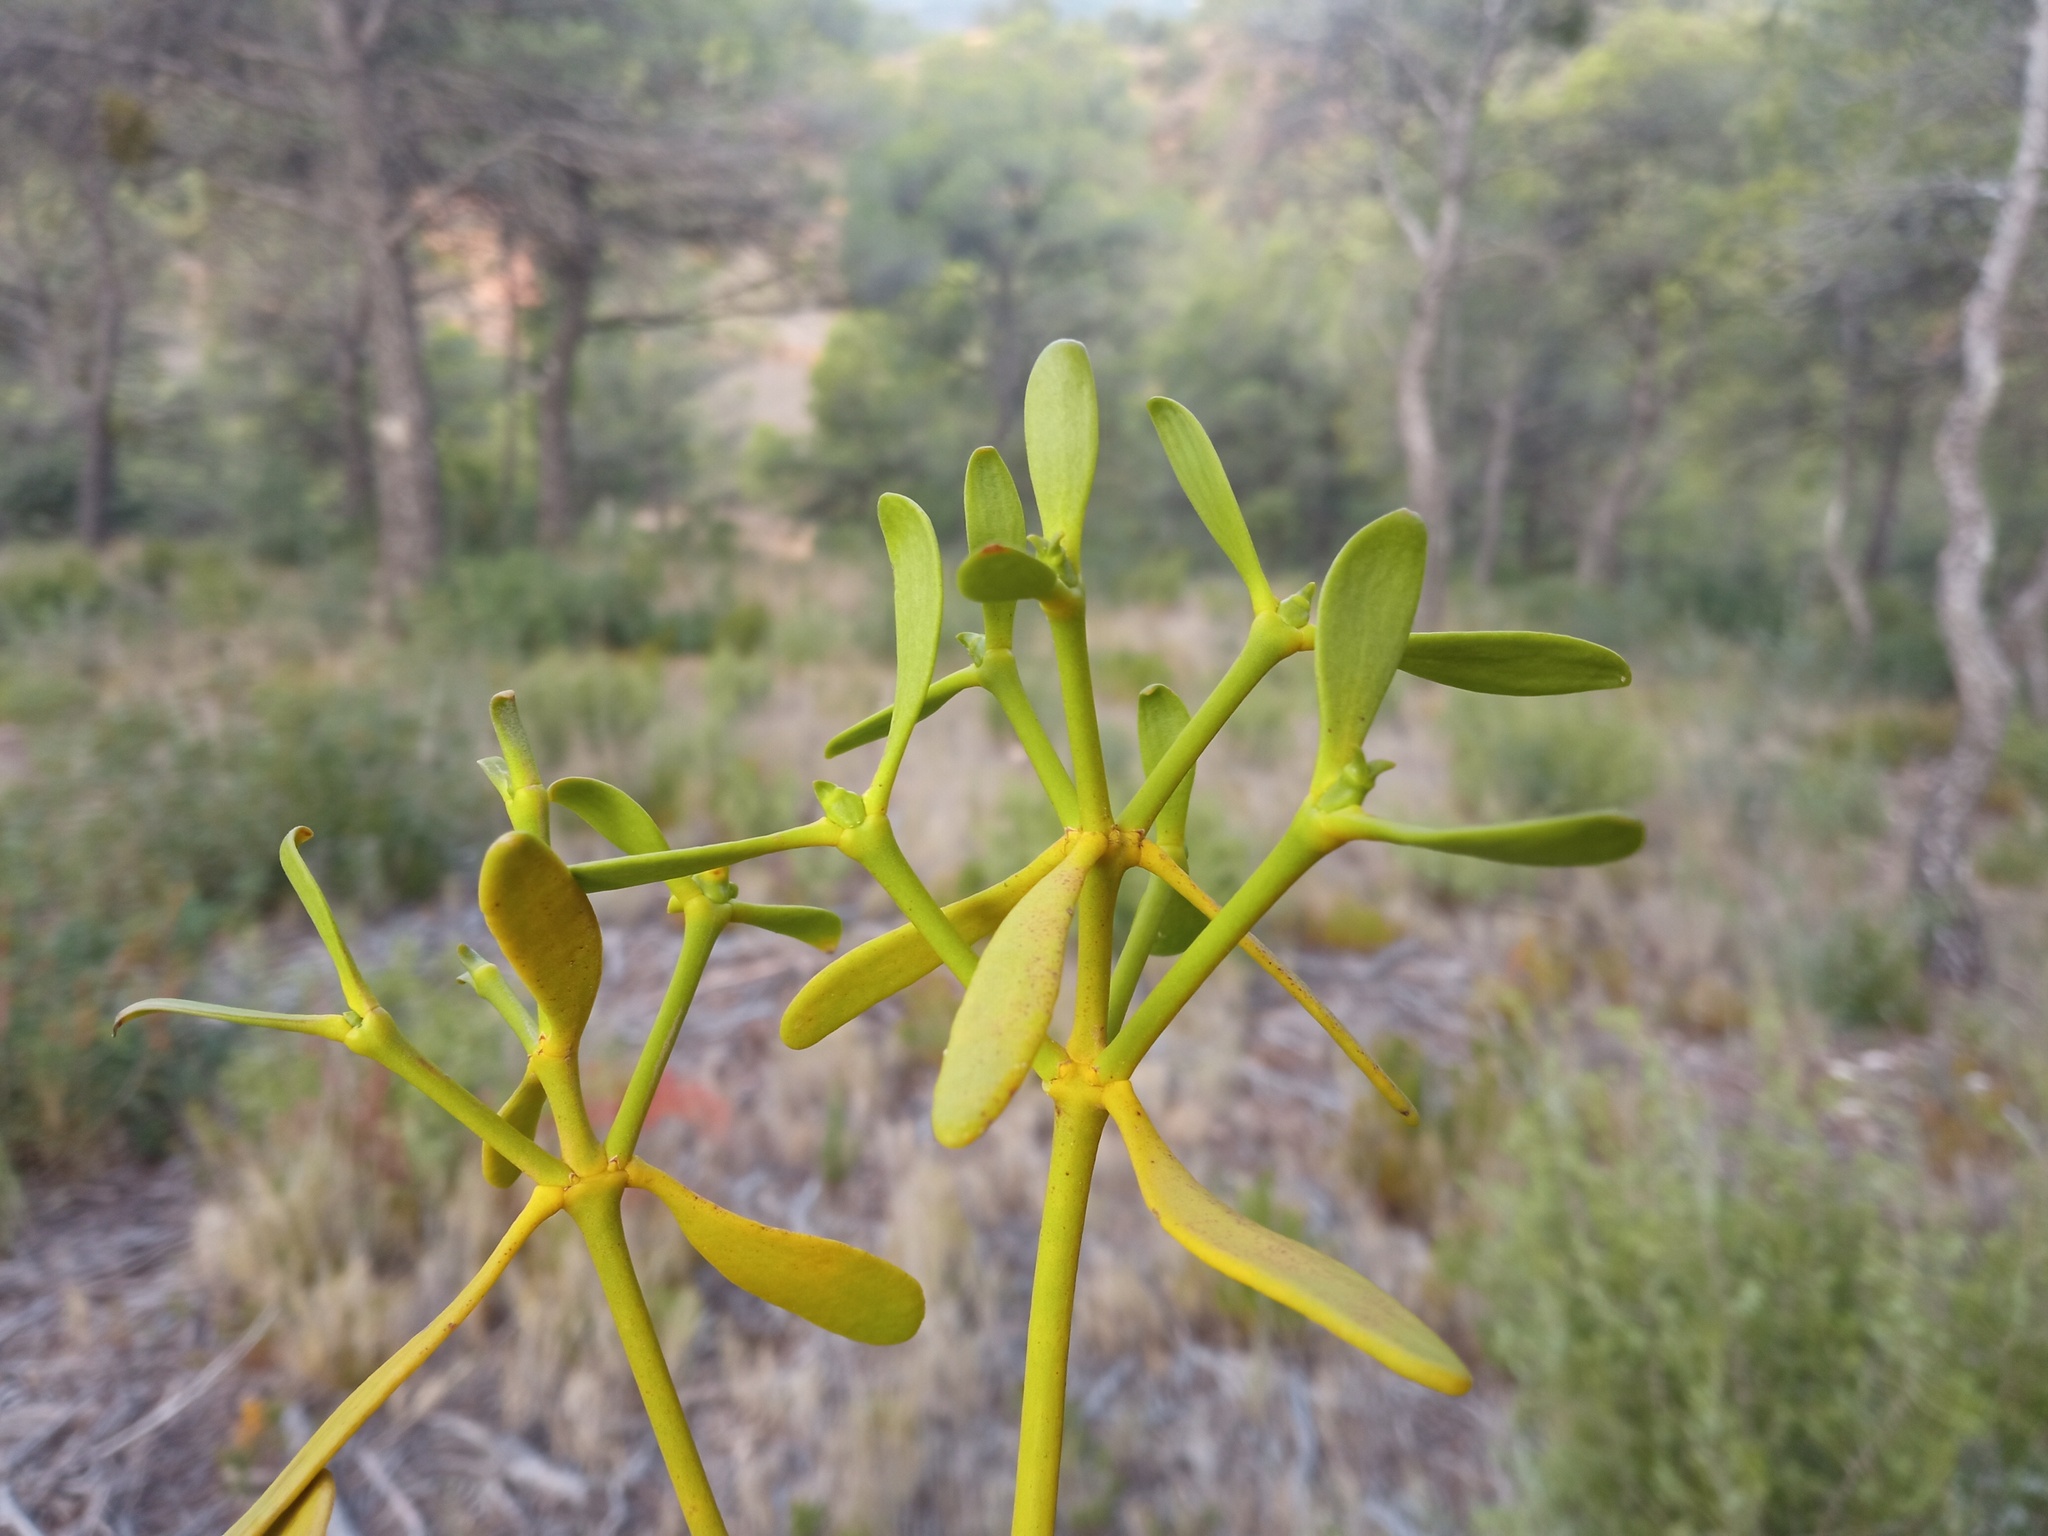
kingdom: Plantae
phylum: Tracheophyta
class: Magnoliopsida
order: Santalales
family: Viscaceae
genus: Viscum
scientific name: Viscum album
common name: Mistletoe
